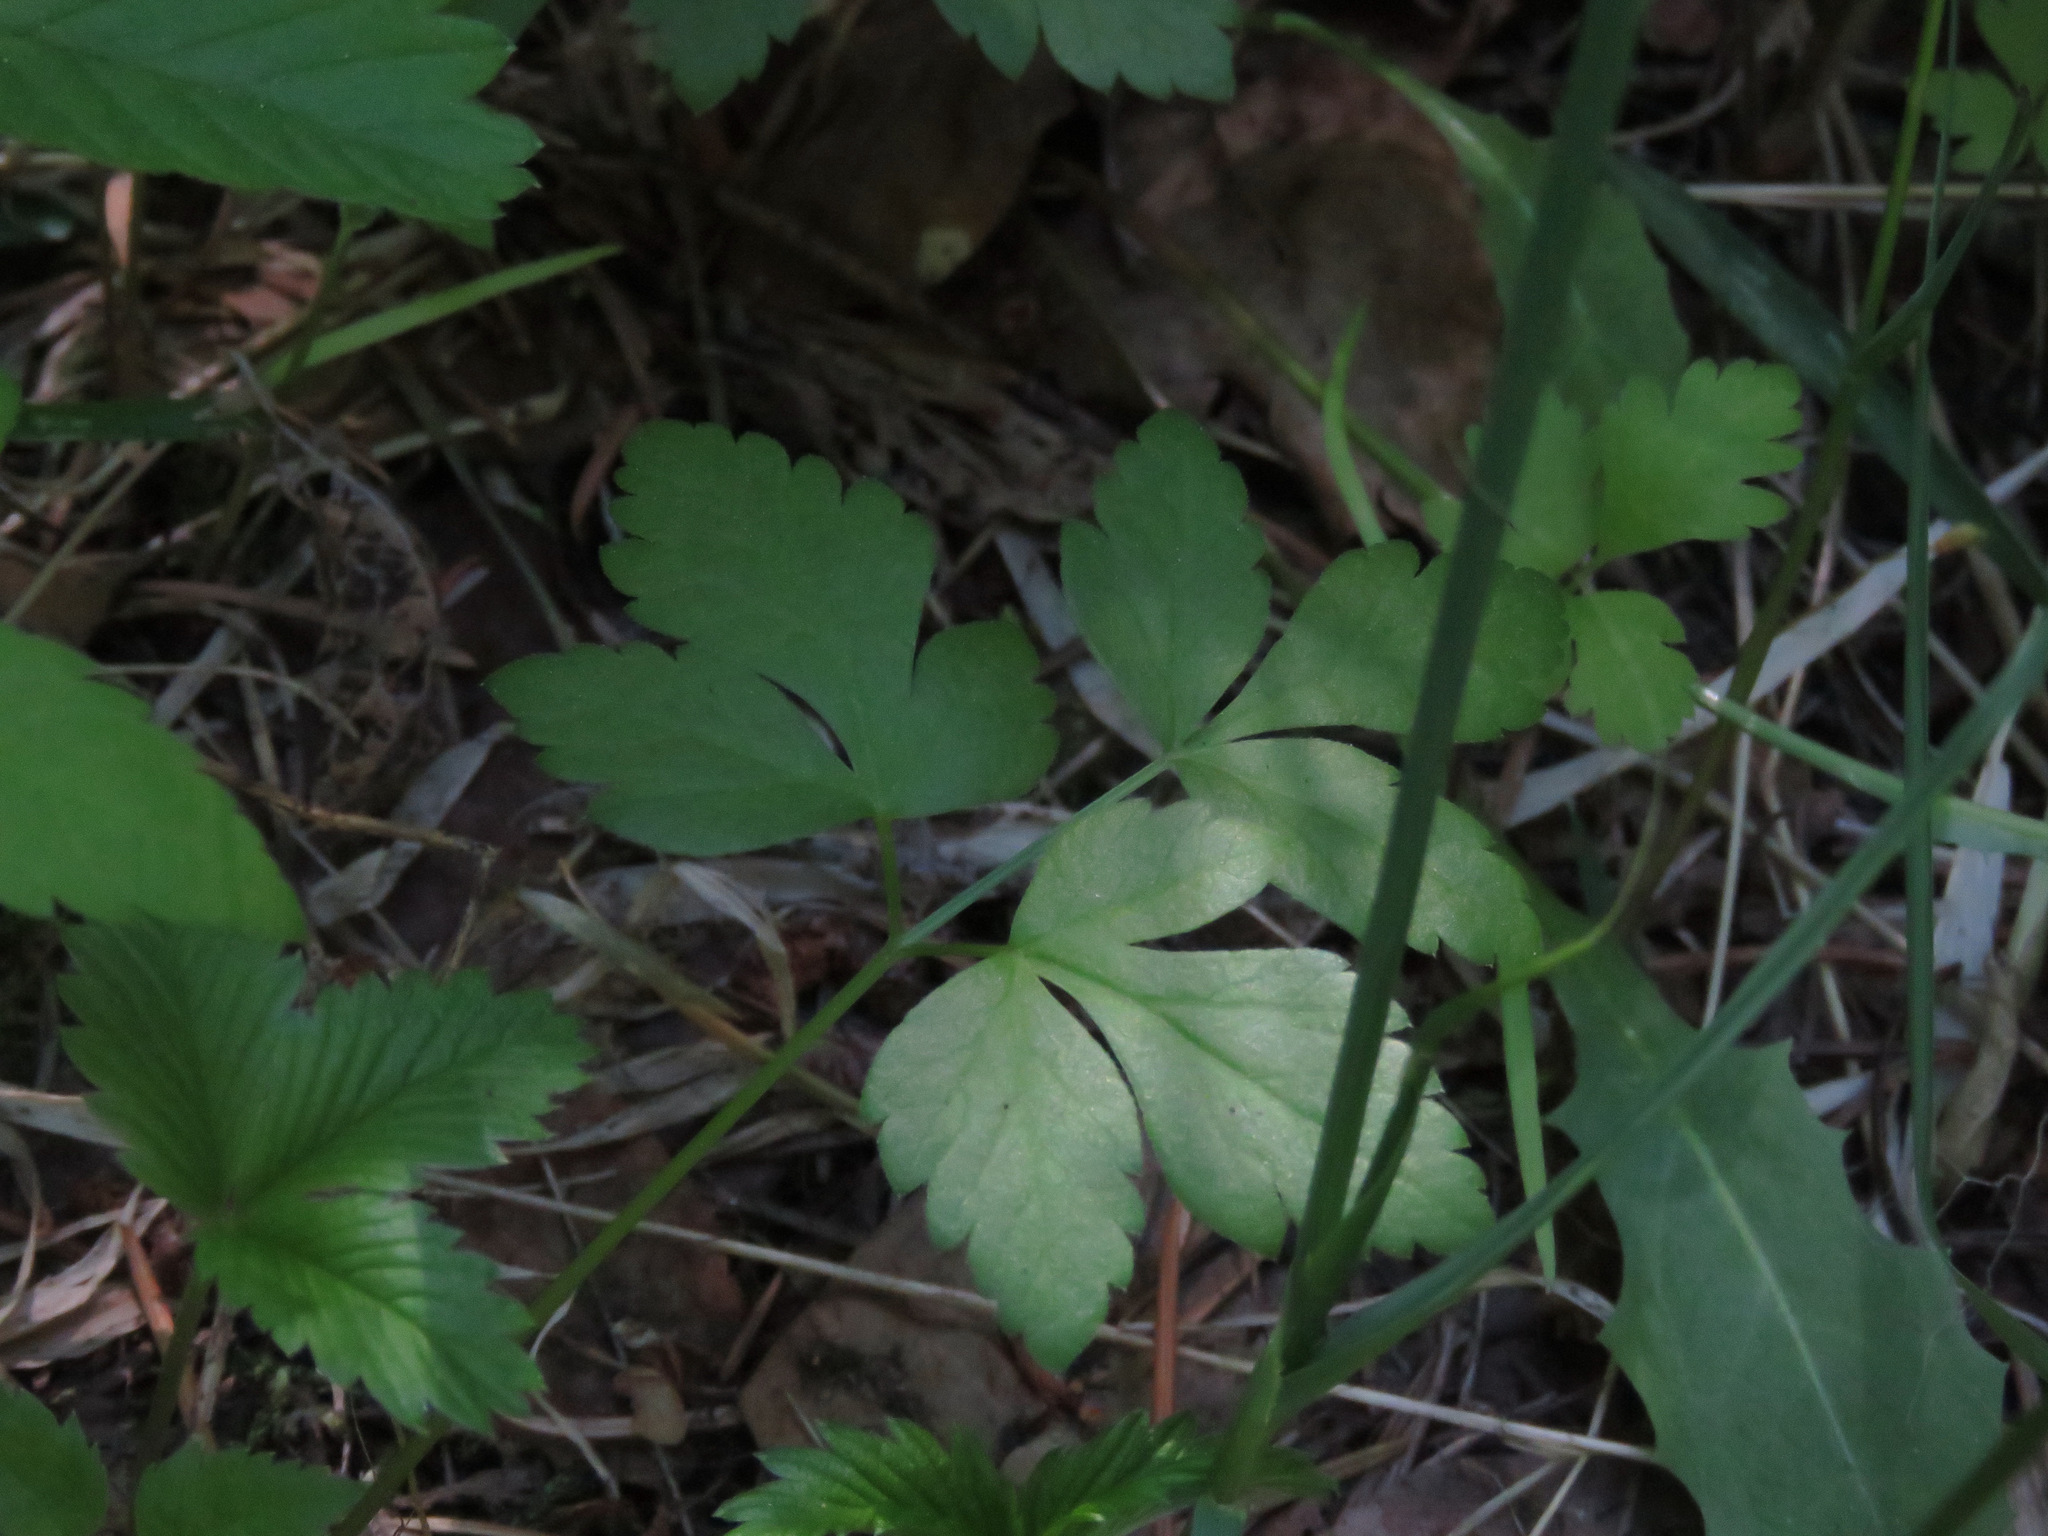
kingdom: Plantae
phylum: Tracheophyta
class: Magnoliopsida
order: Apiales
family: Apiaceae
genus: Osmorhiza
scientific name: Osmorhiza berteroi
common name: Mountain sweet cicely
